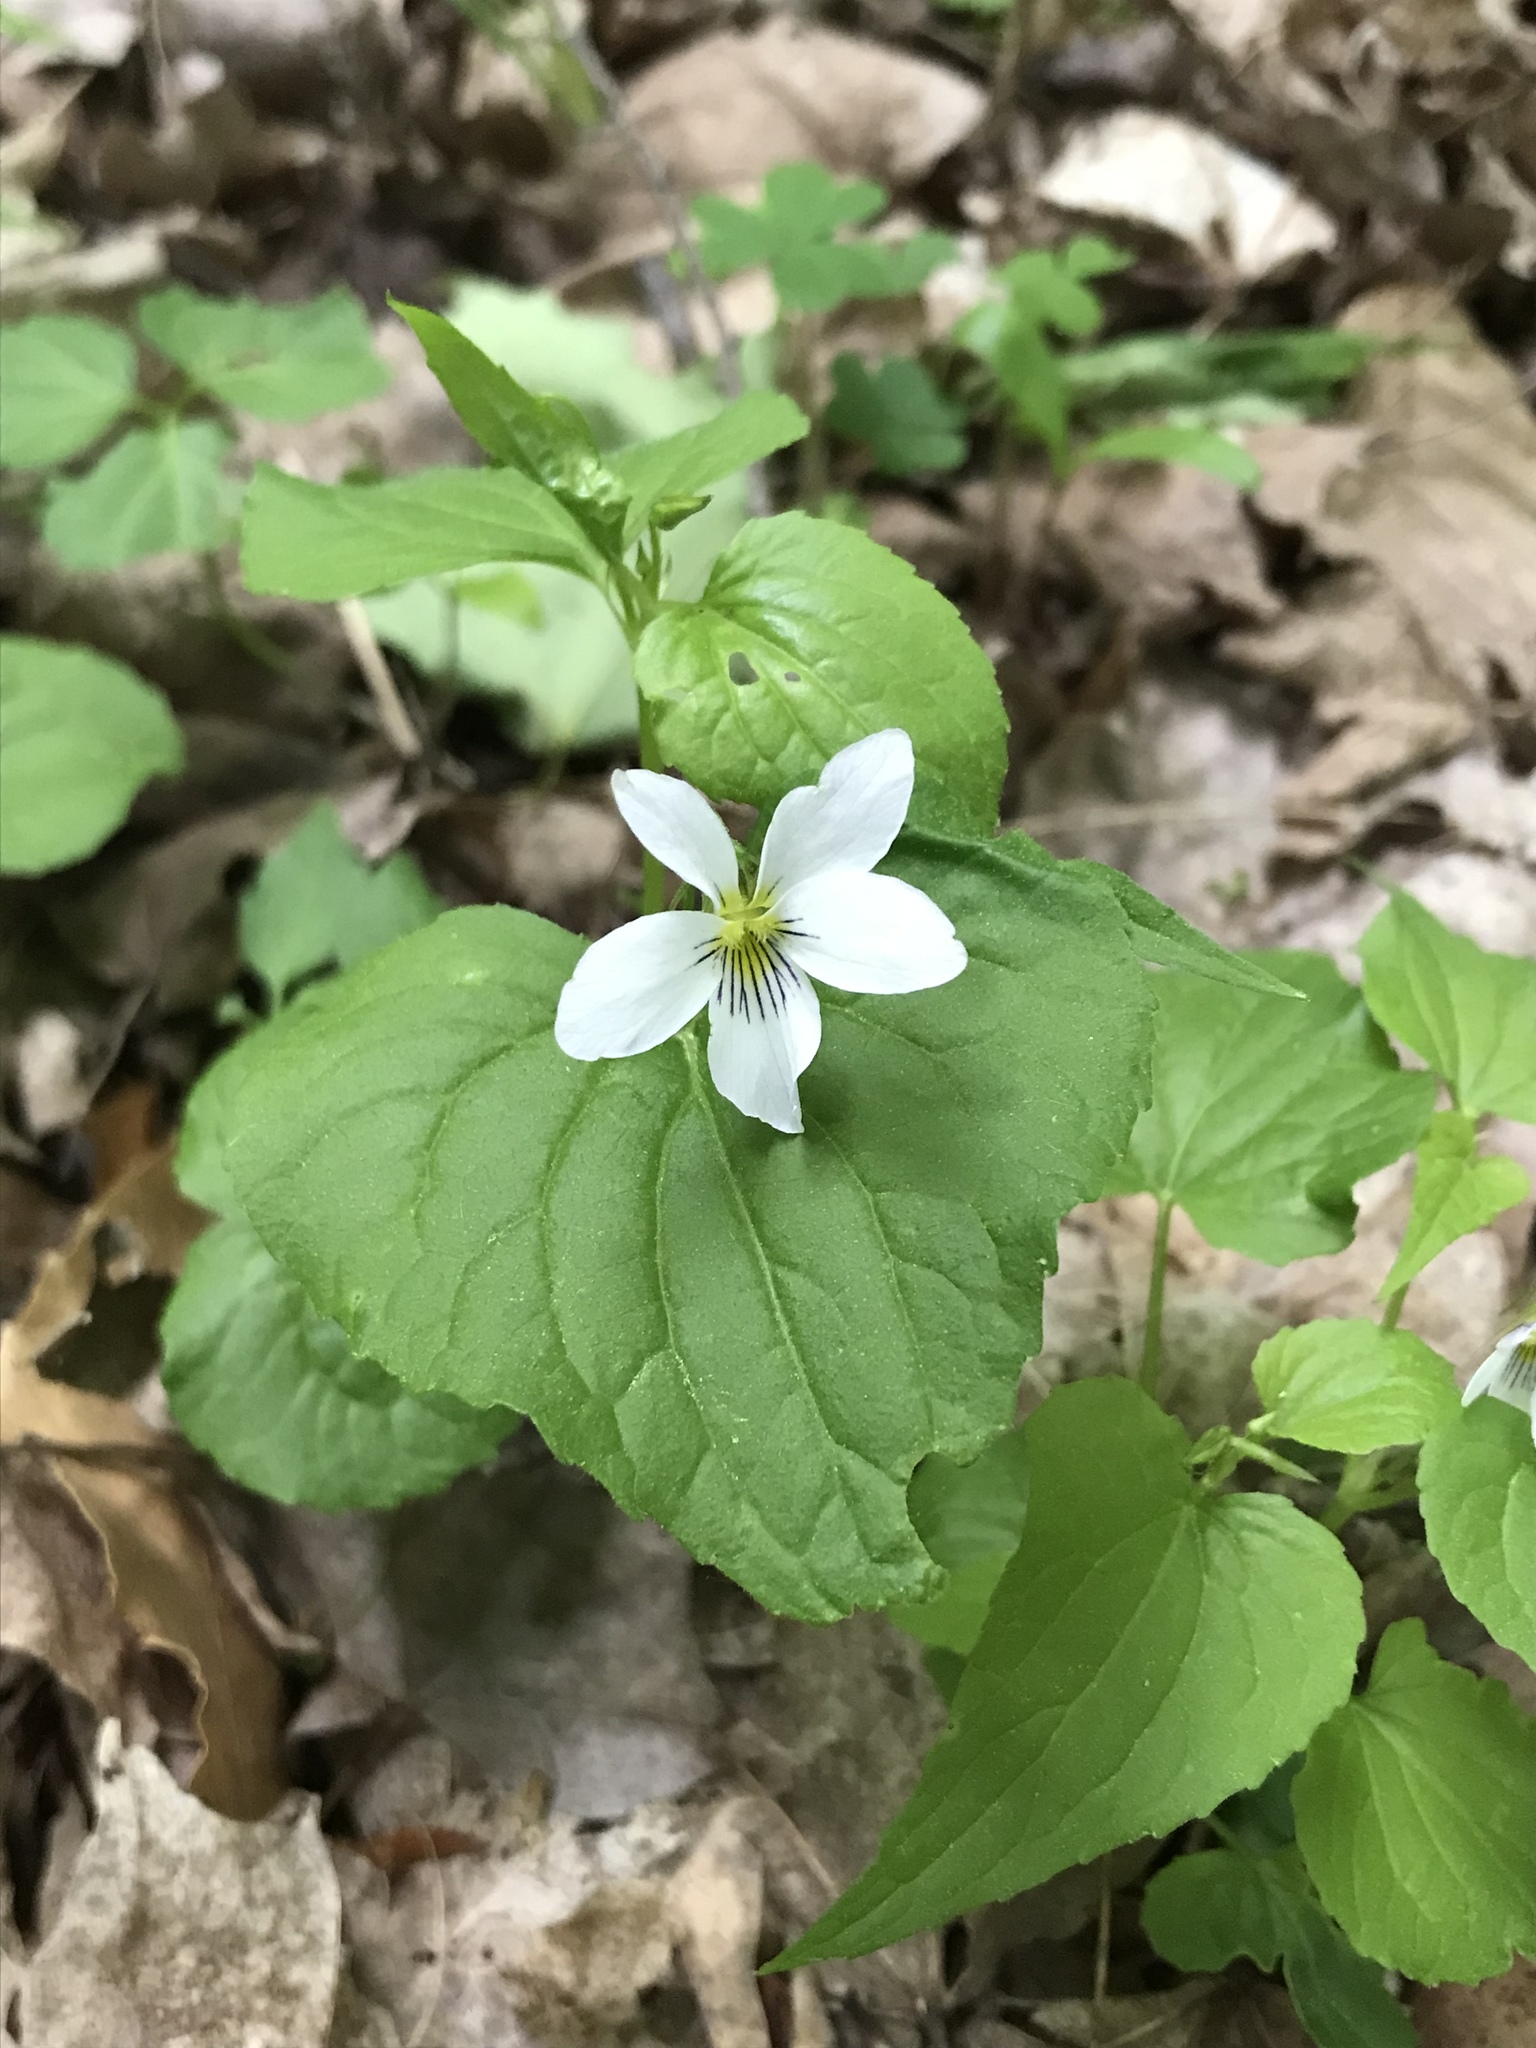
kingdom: Plantae
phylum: Tracheophyta
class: Magnoliopsida
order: Malpighiales
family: Violaceae
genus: Viola
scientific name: Viola canadensis
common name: Canada violet
